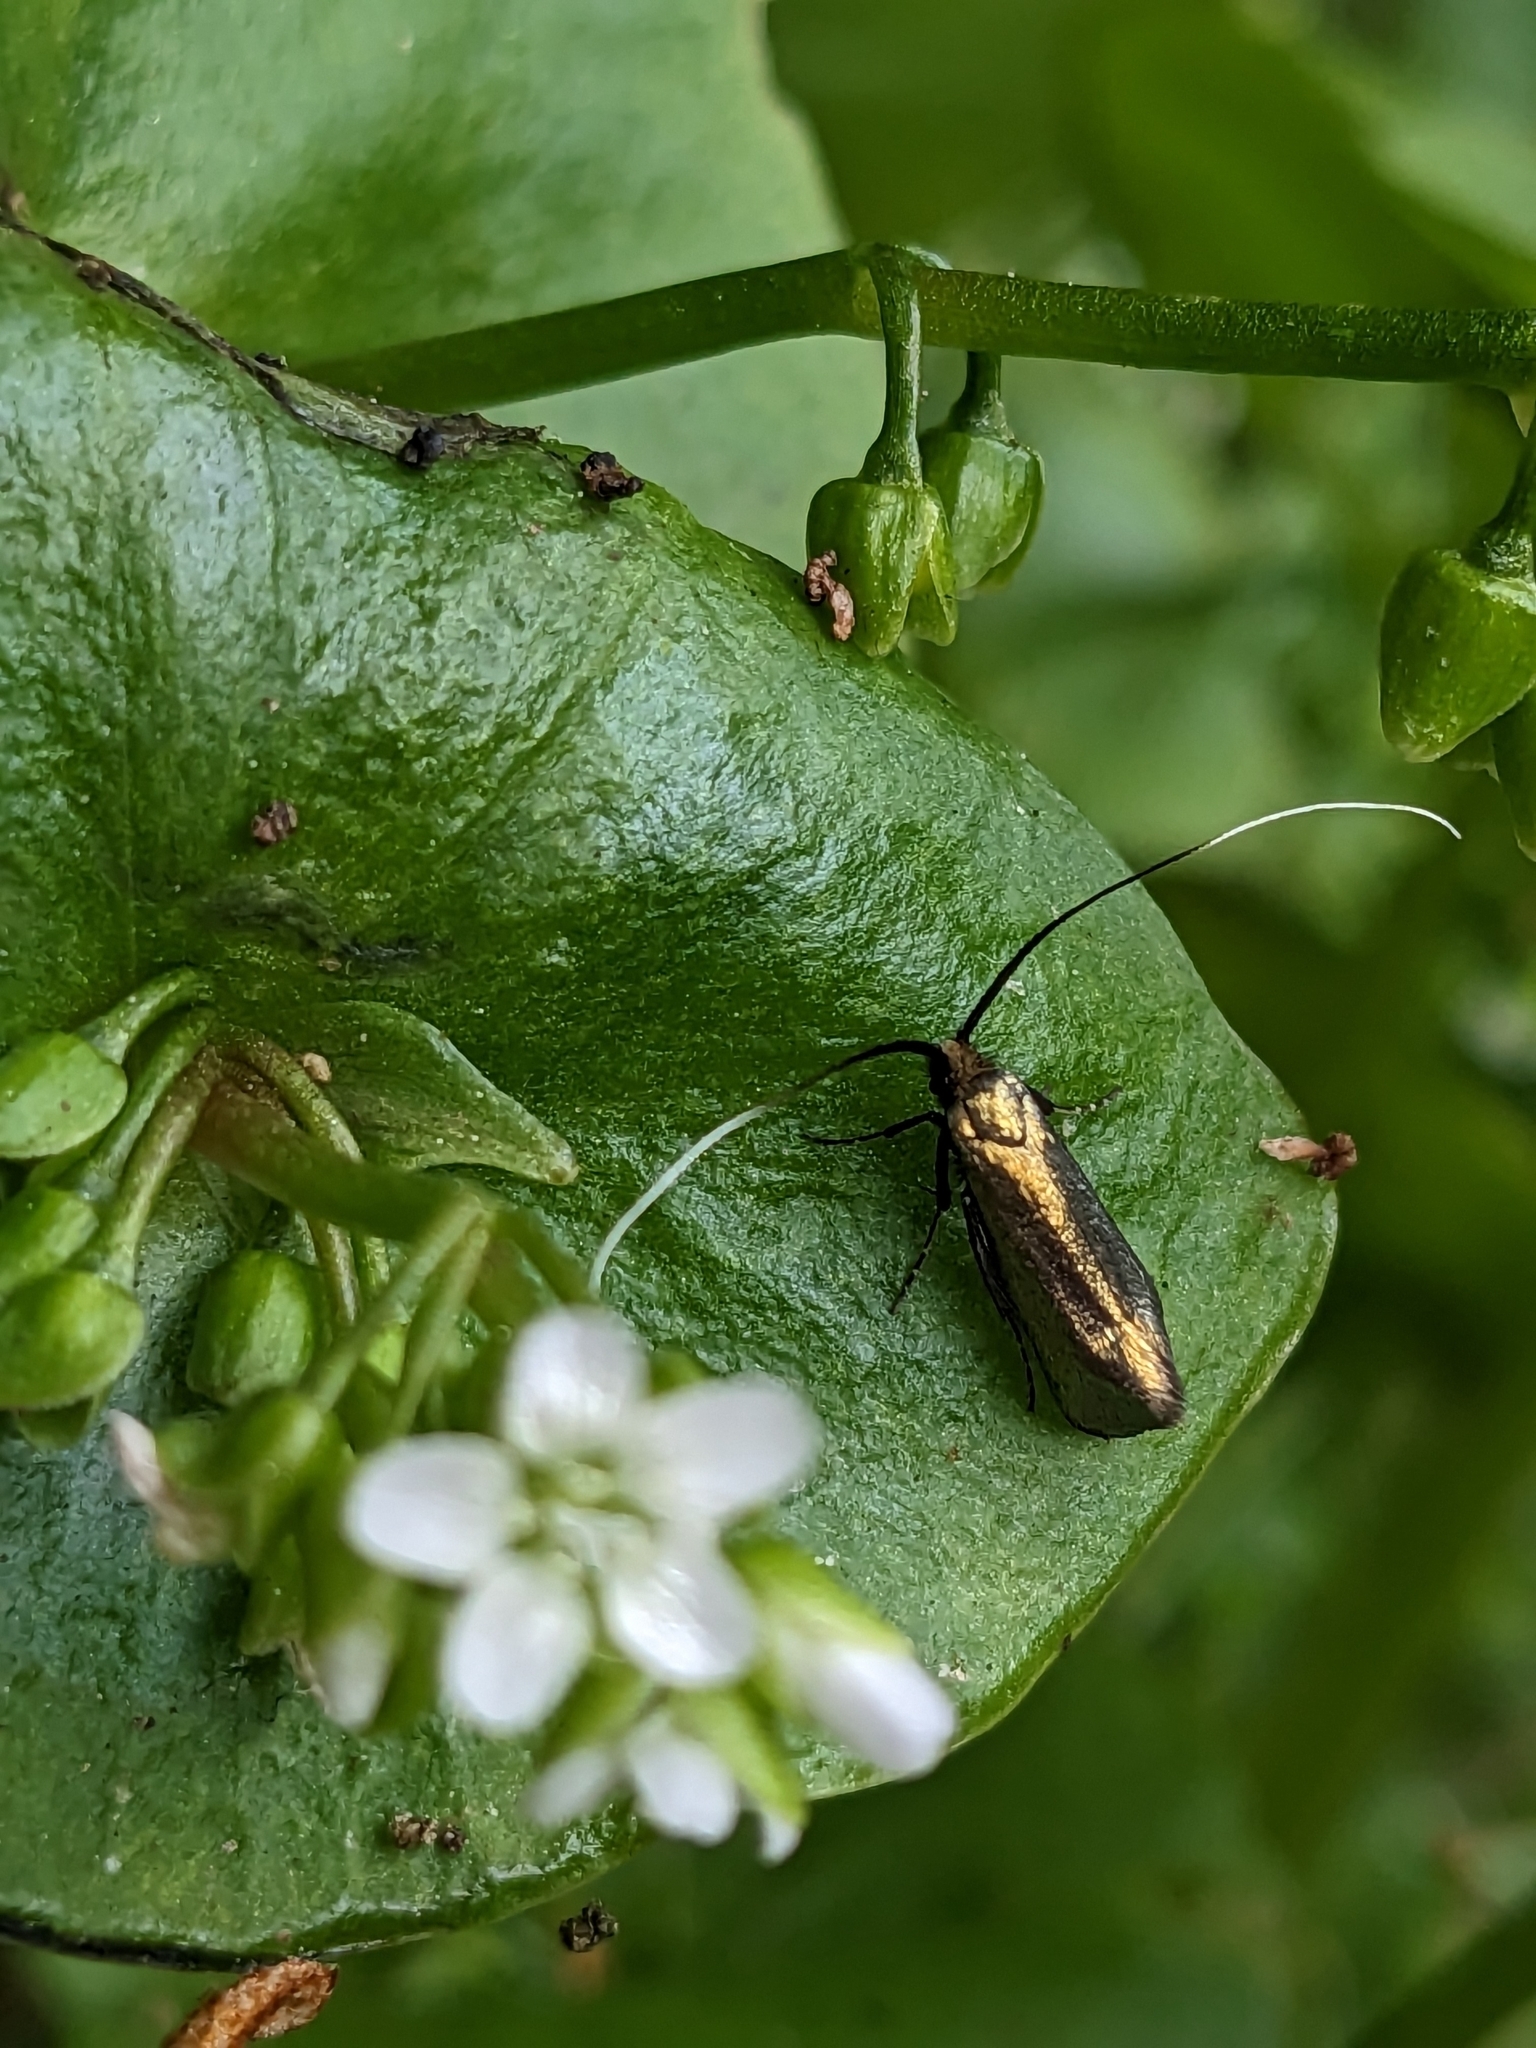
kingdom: Animalia
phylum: Arthropoda
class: Insecta
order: Lepidoptera
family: Adelidae
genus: Adela
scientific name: Adela viridella
